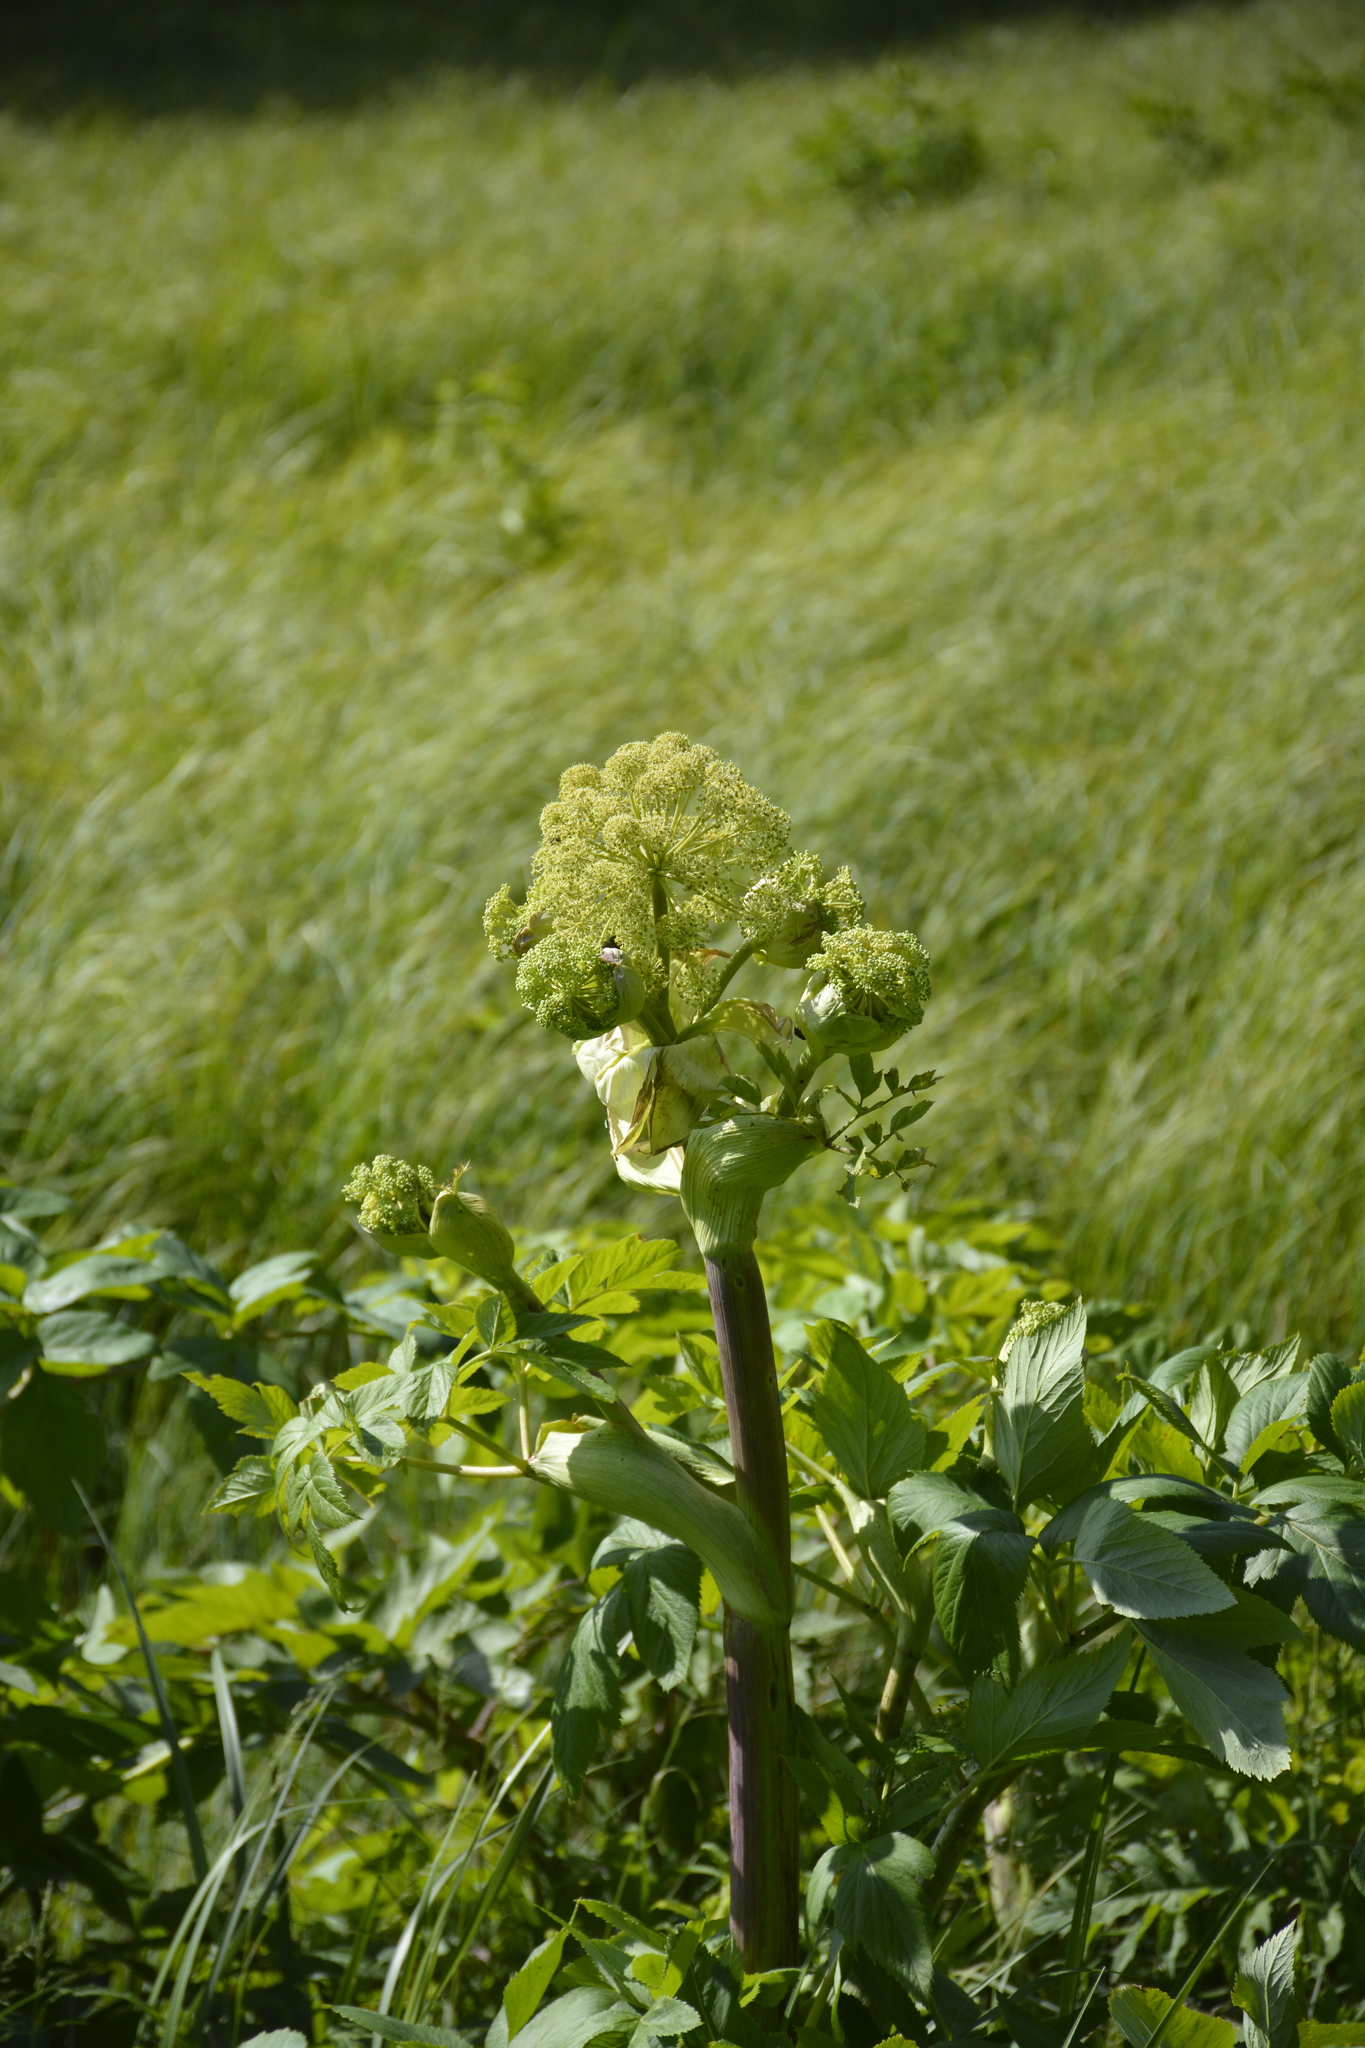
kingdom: Plantae
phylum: Tracheophyta
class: Magnoliopsida
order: Apiales
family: Apiaceae
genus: Angelica
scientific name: Angelica archangelica
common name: Garden angelica
